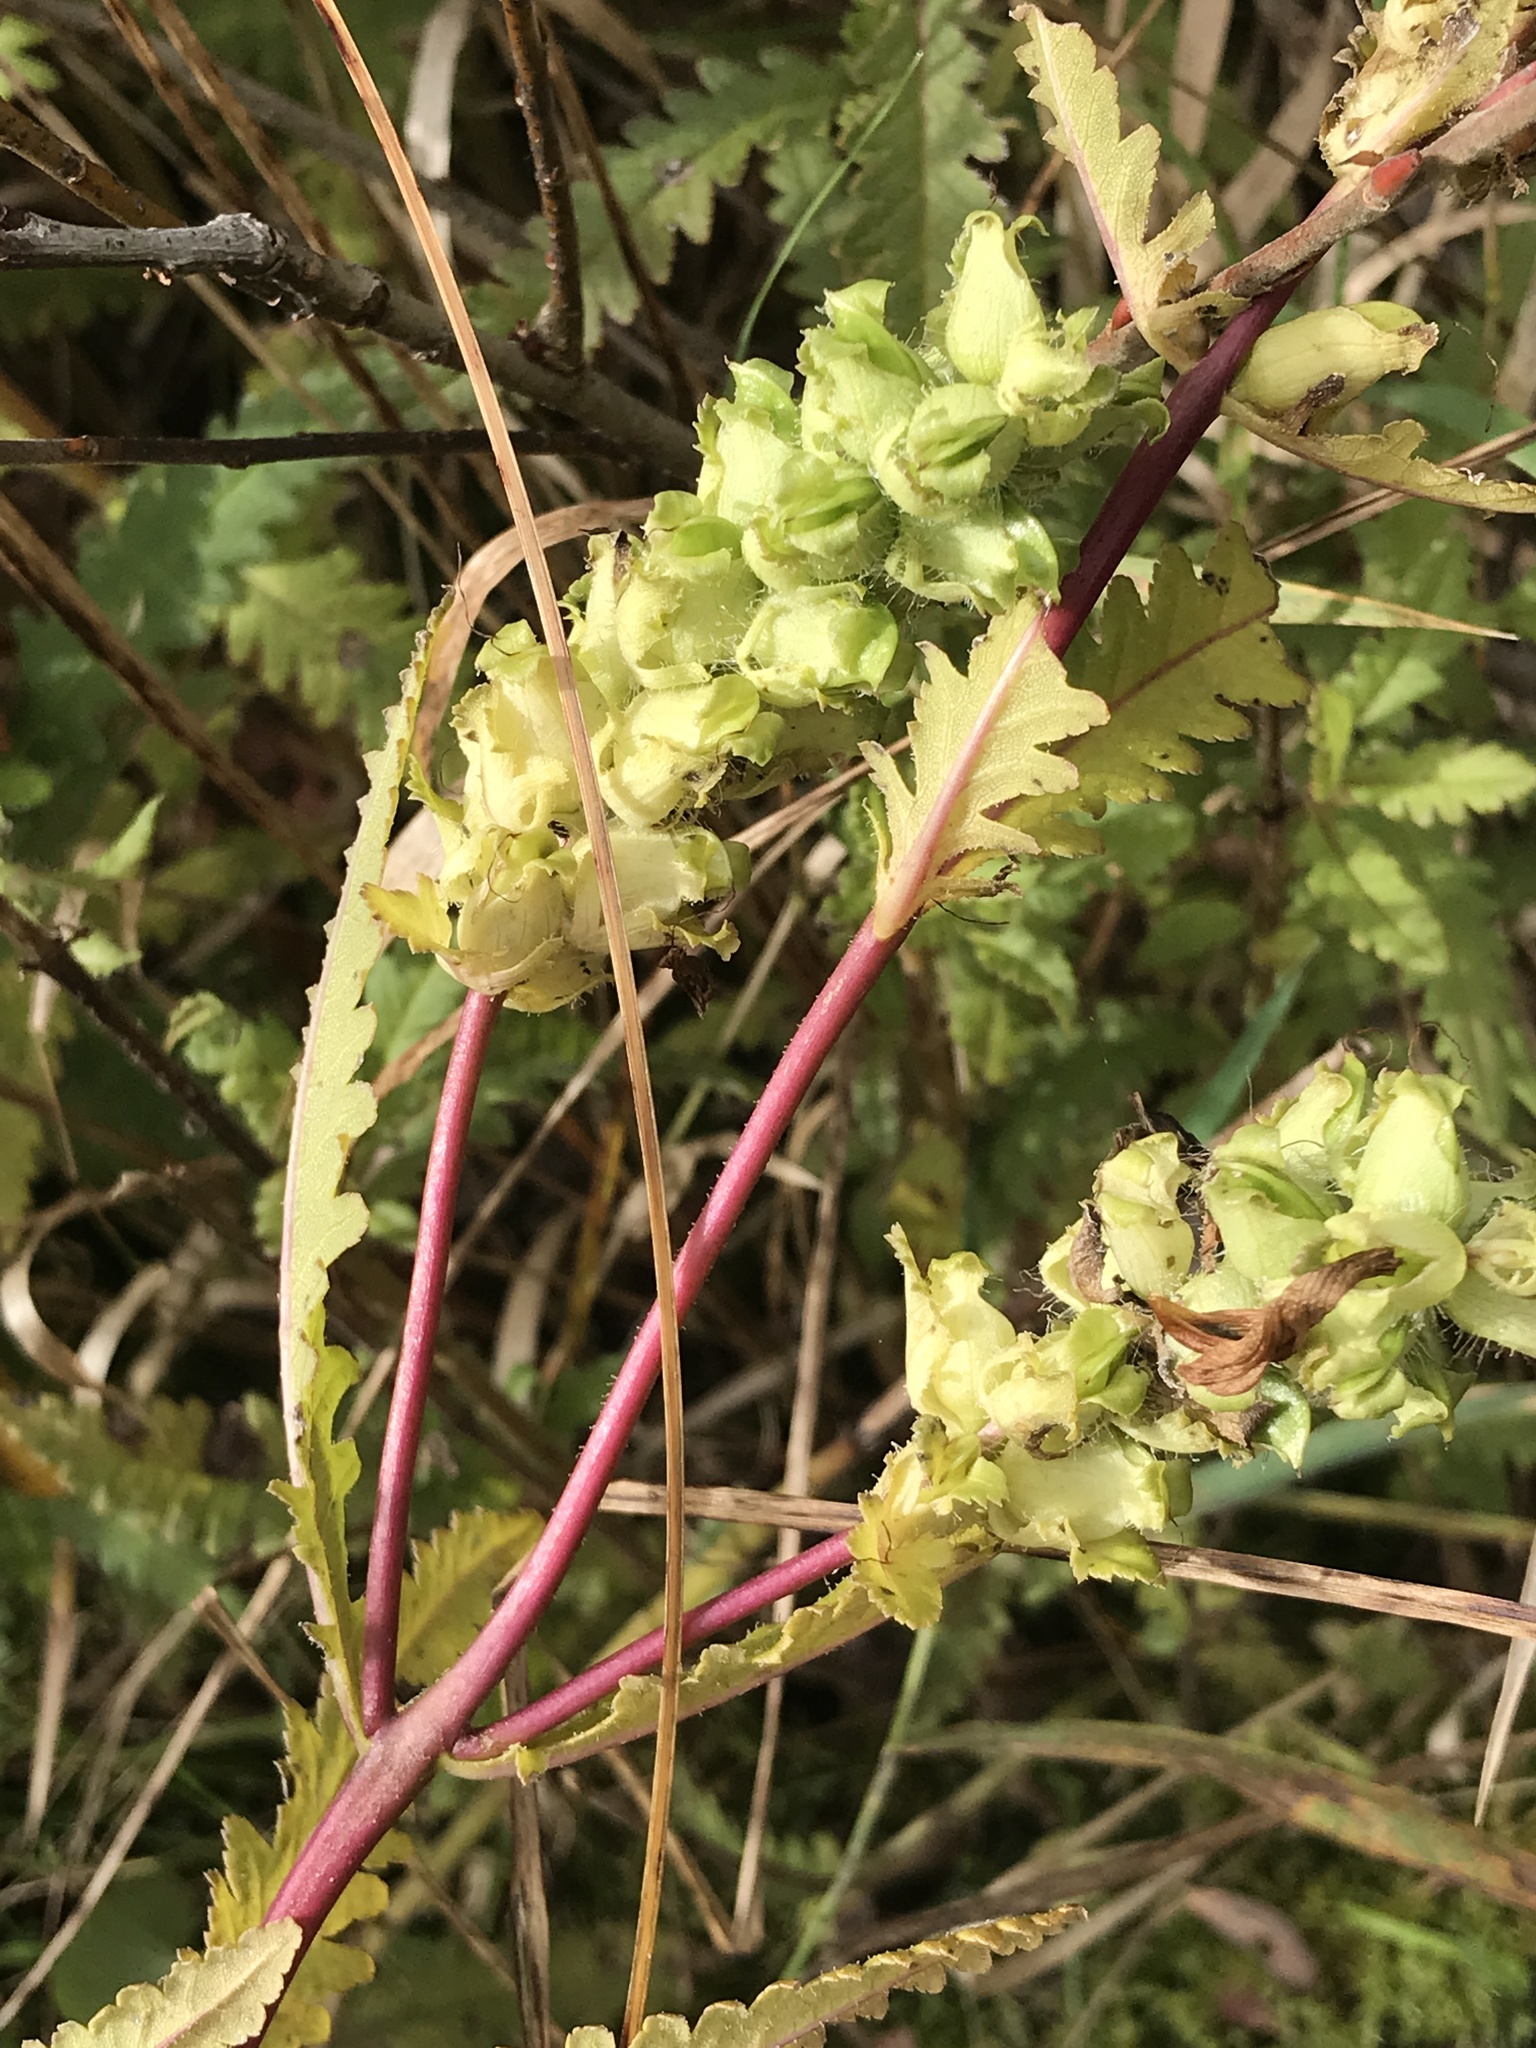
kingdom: Plantae
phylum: Tracheophyta
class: Magnoliopsida
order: Lamiales
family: Orobanchaceae
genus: Pedicularis
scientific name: Pedicularis lanceolata
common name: Swamp lousewort
